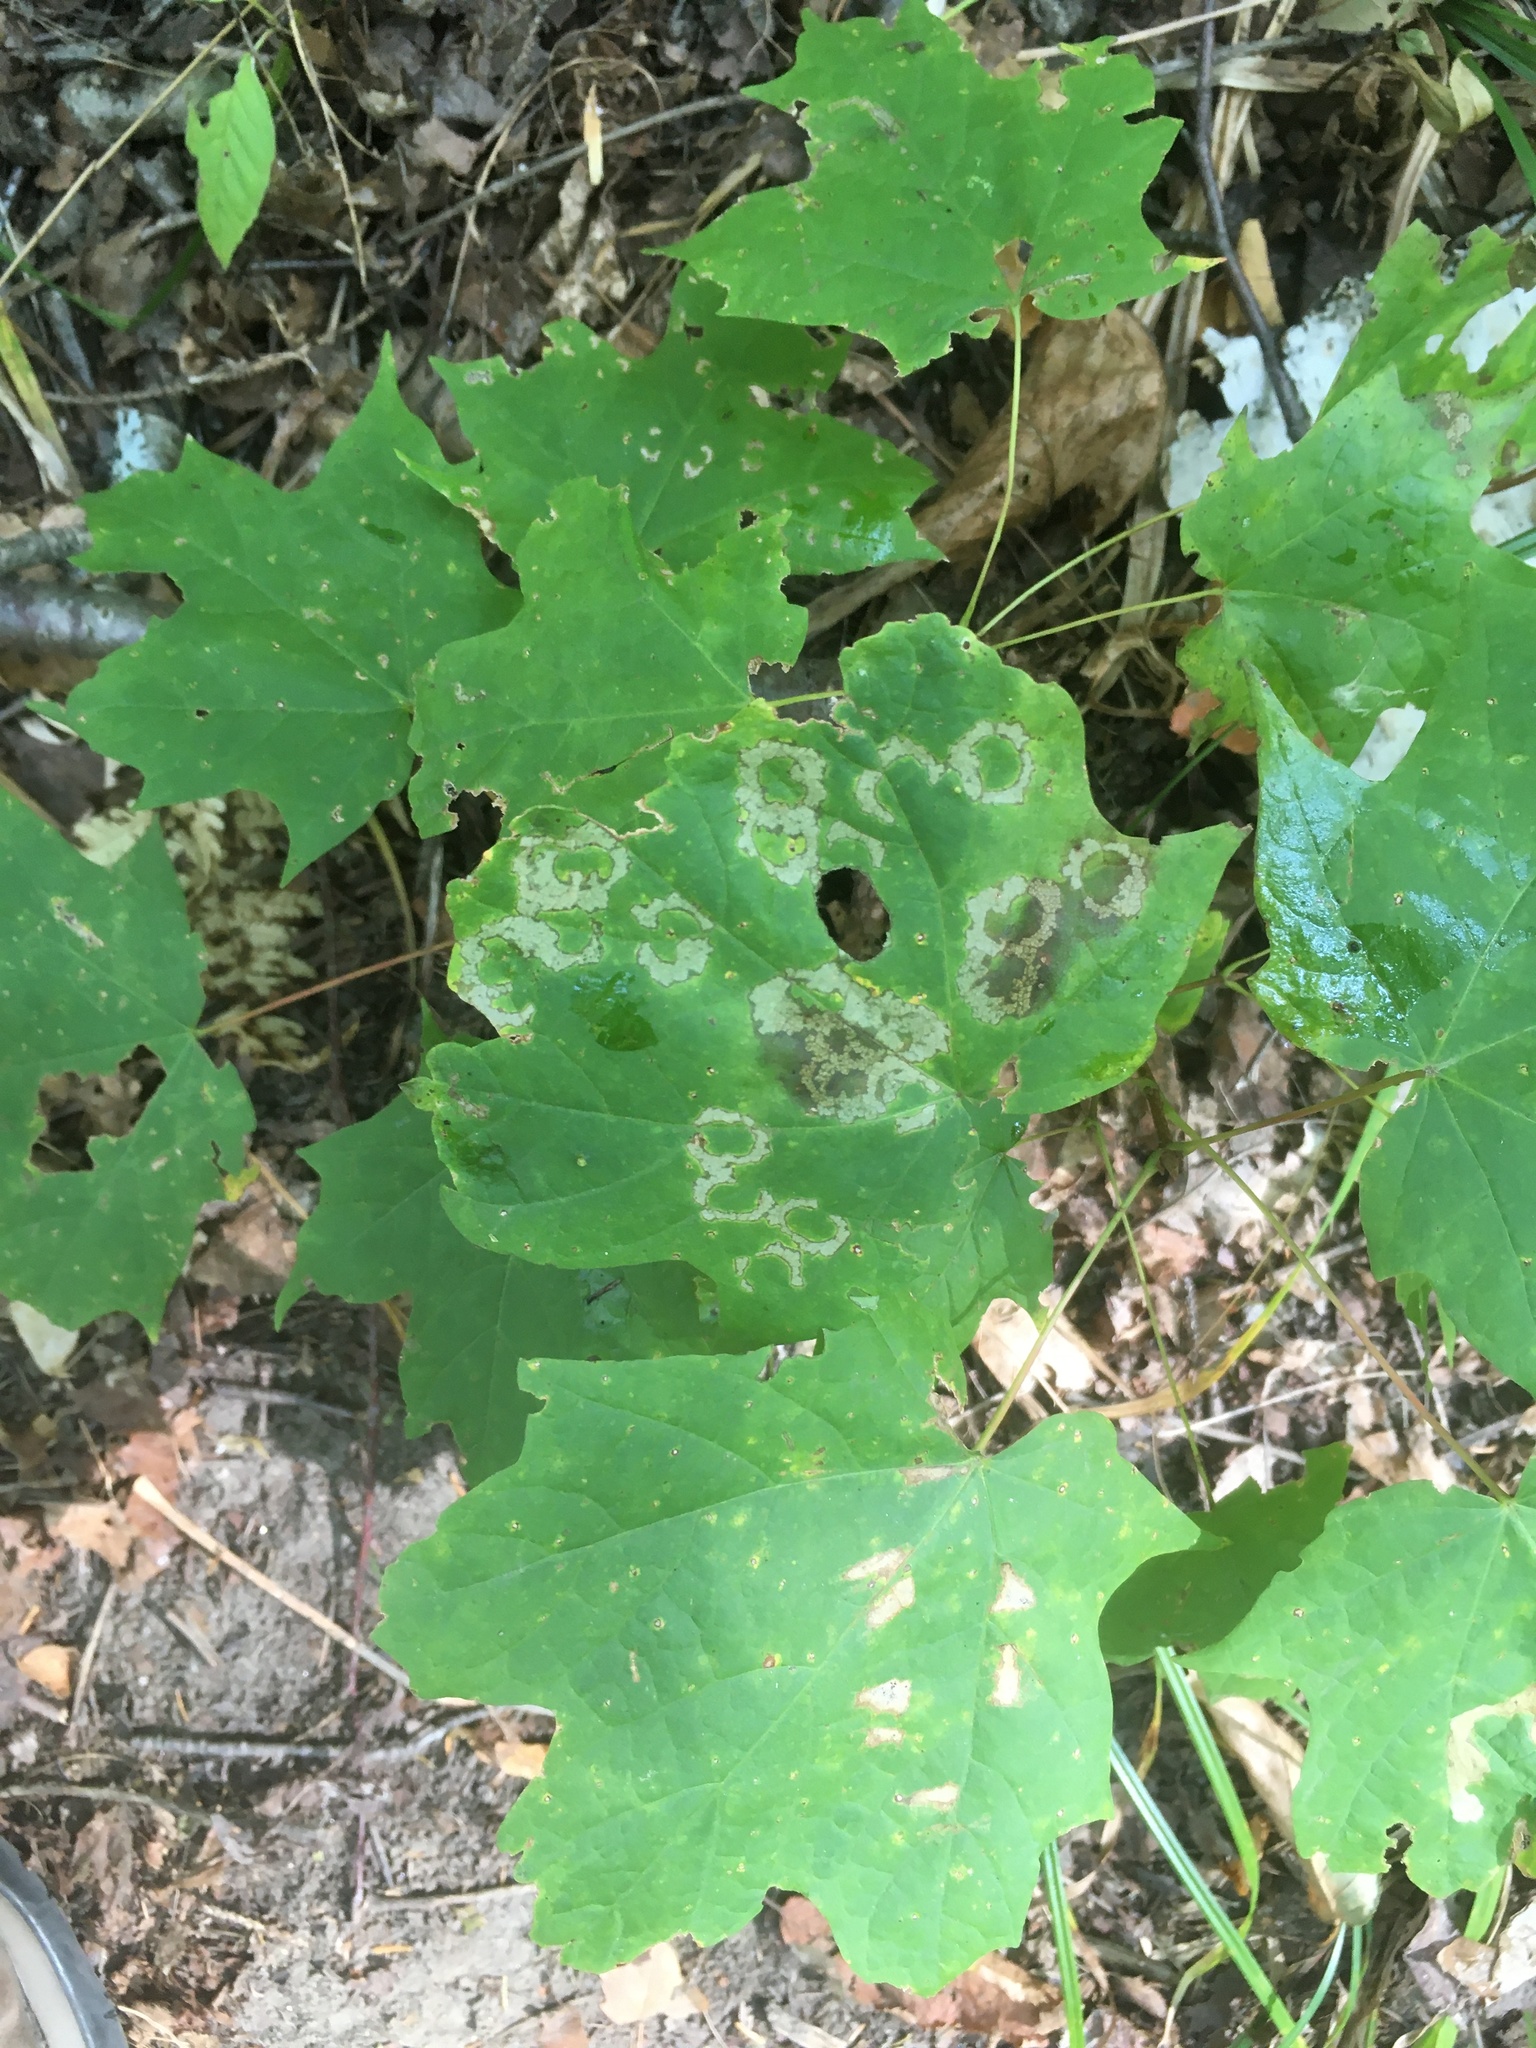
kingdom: Animalia
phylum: Arthropoda
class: Insecta
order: Lepidoptera
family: Incurvariidae
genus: Paraclemensia
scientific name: Paraclemensia acerifoliella
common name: Maple leafcutter
